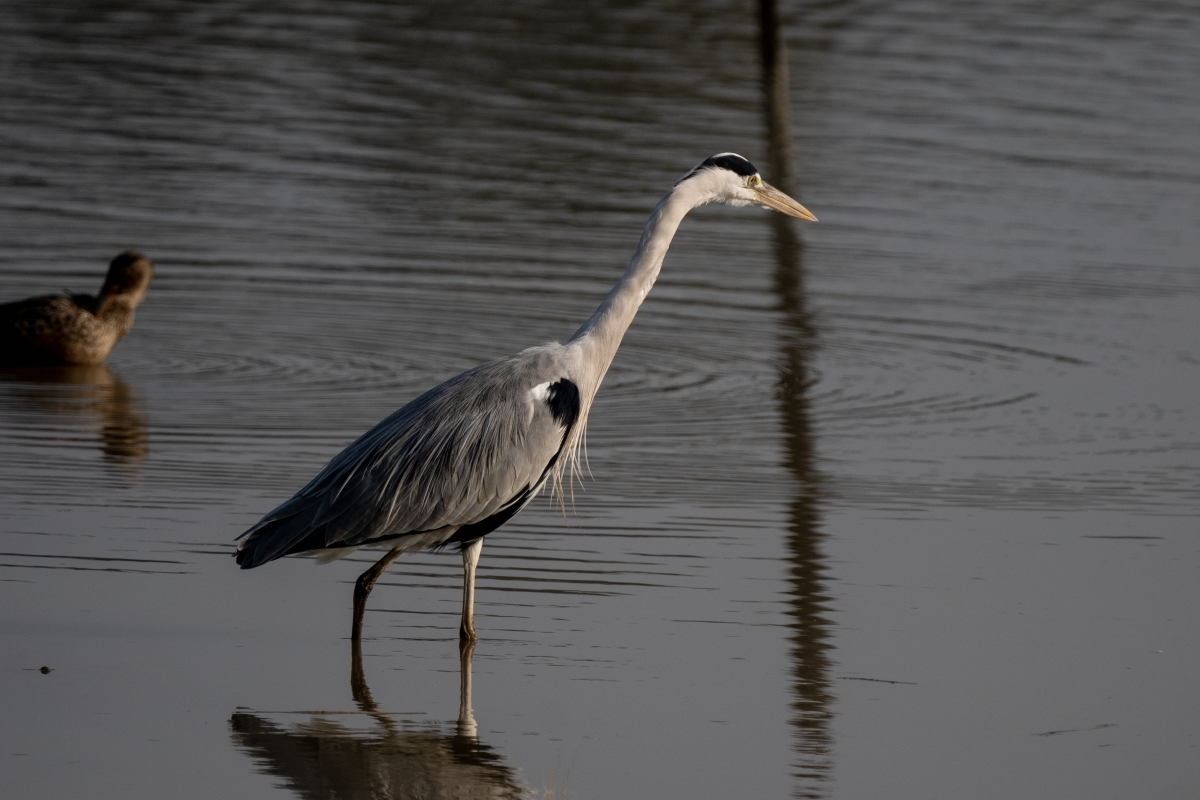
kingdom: Animalia
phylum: Chordata
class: Aves
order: Pelecaniformes
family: Ardeidae
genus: Ardea
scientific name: Ardea cinerea
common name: Grey heron
